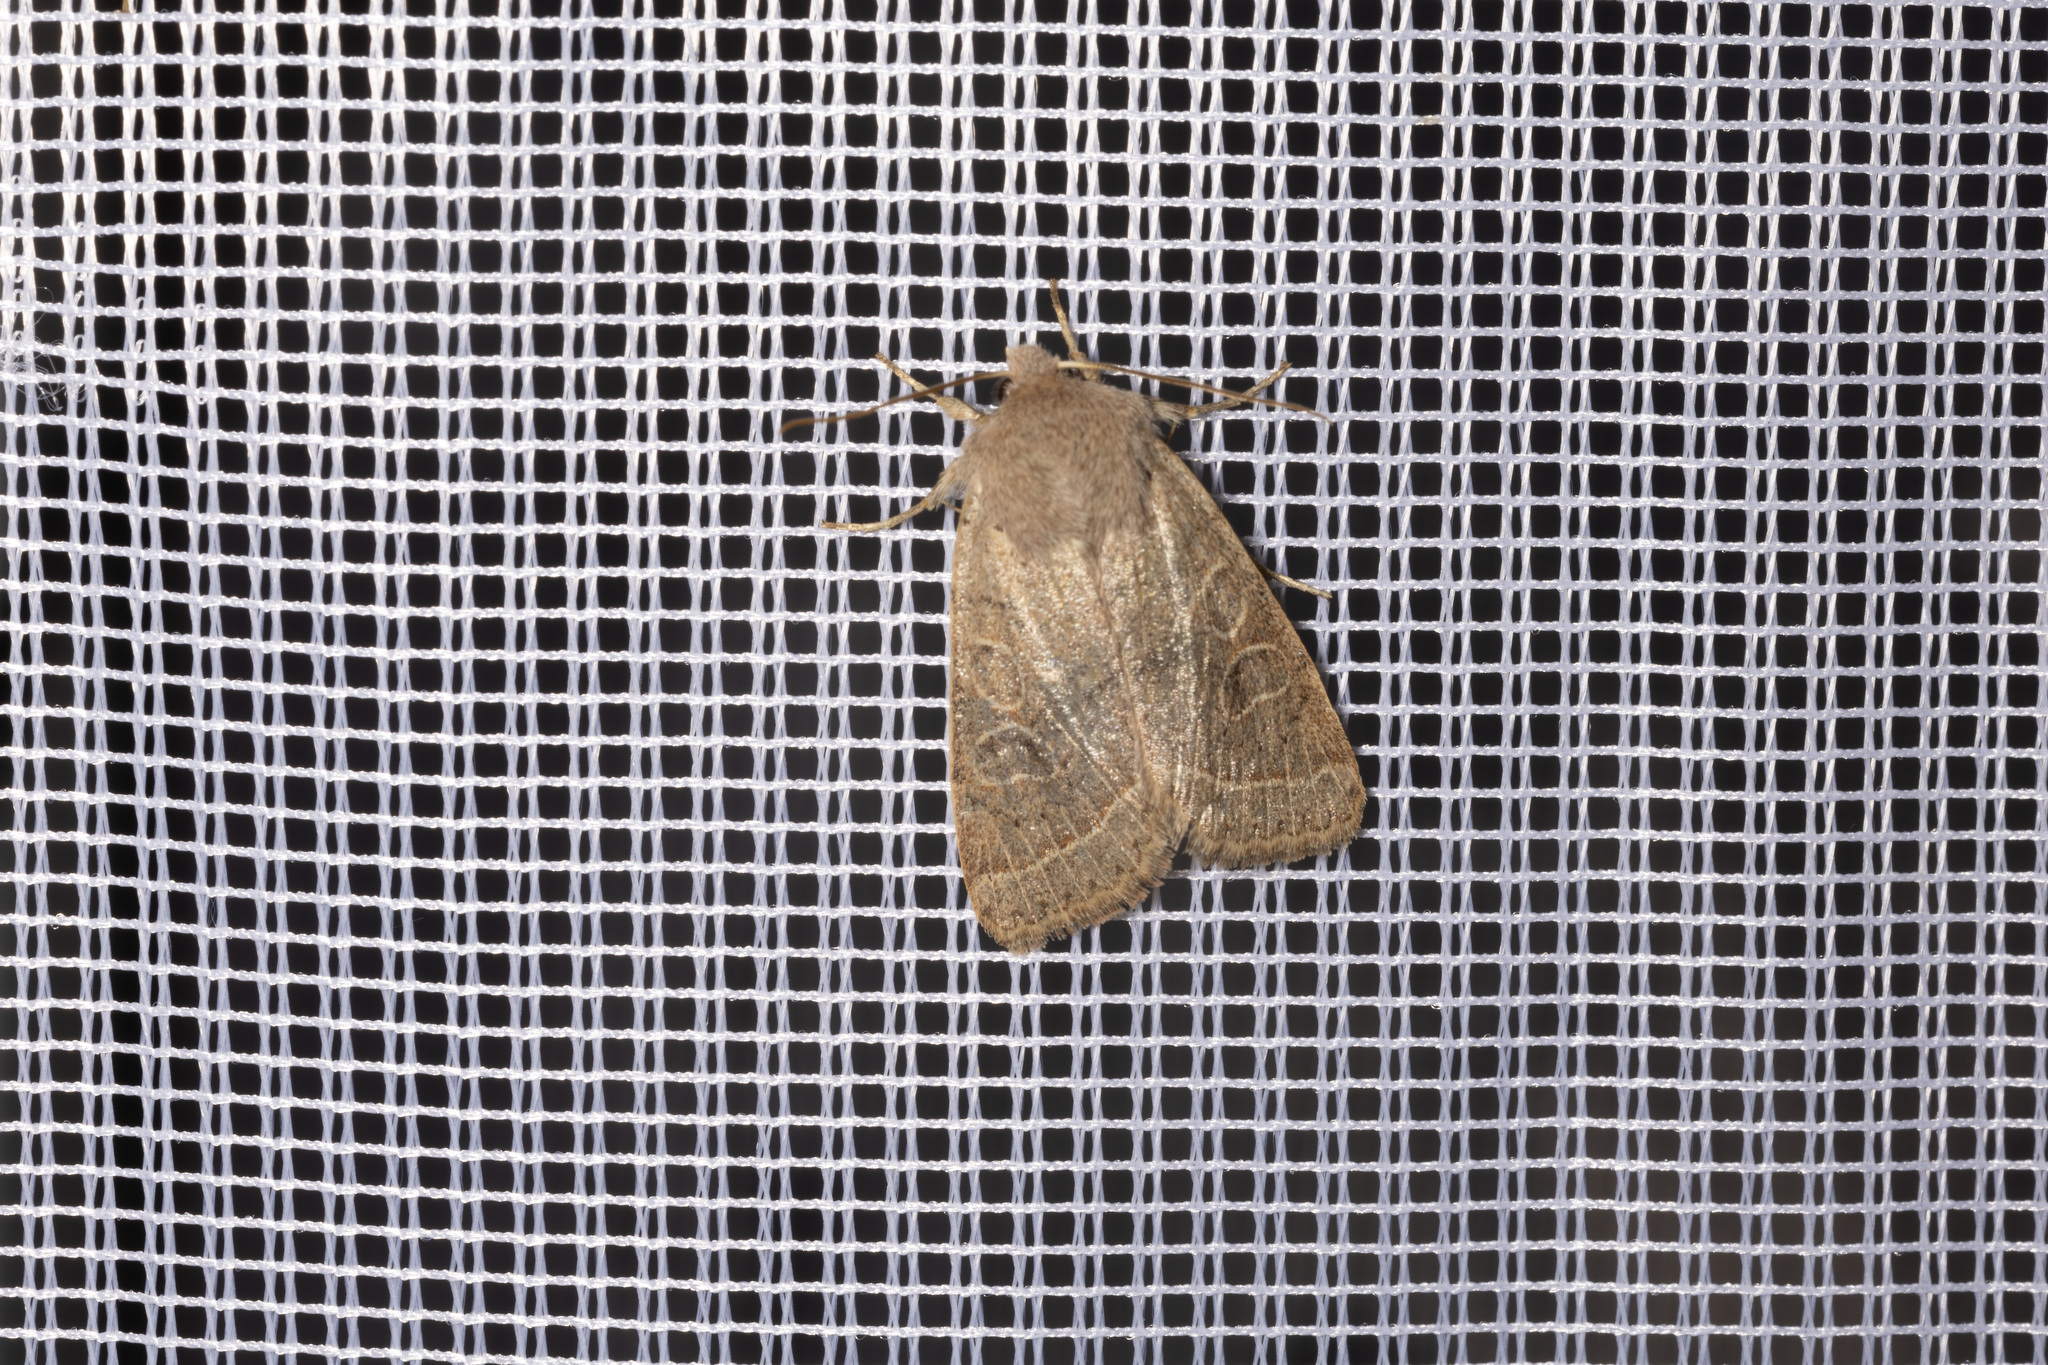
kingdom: Animalia
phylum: Arthropoda
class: Insecta
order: Lepidoptera
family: Noctuidae
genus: Orthosia
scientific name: Orthosia cerasi
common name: Common quaker
